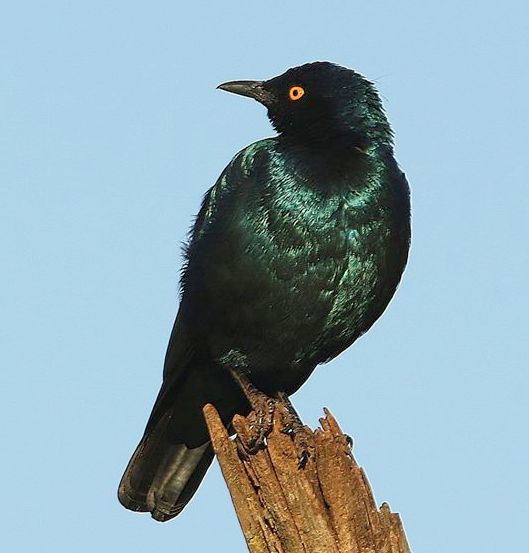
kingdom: Animalia
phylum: Chordata
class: Aves
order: Passeriformes
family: Sturnidae
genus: Lamprotornis
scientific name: Lamprotornis nitens
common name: Cape starling
